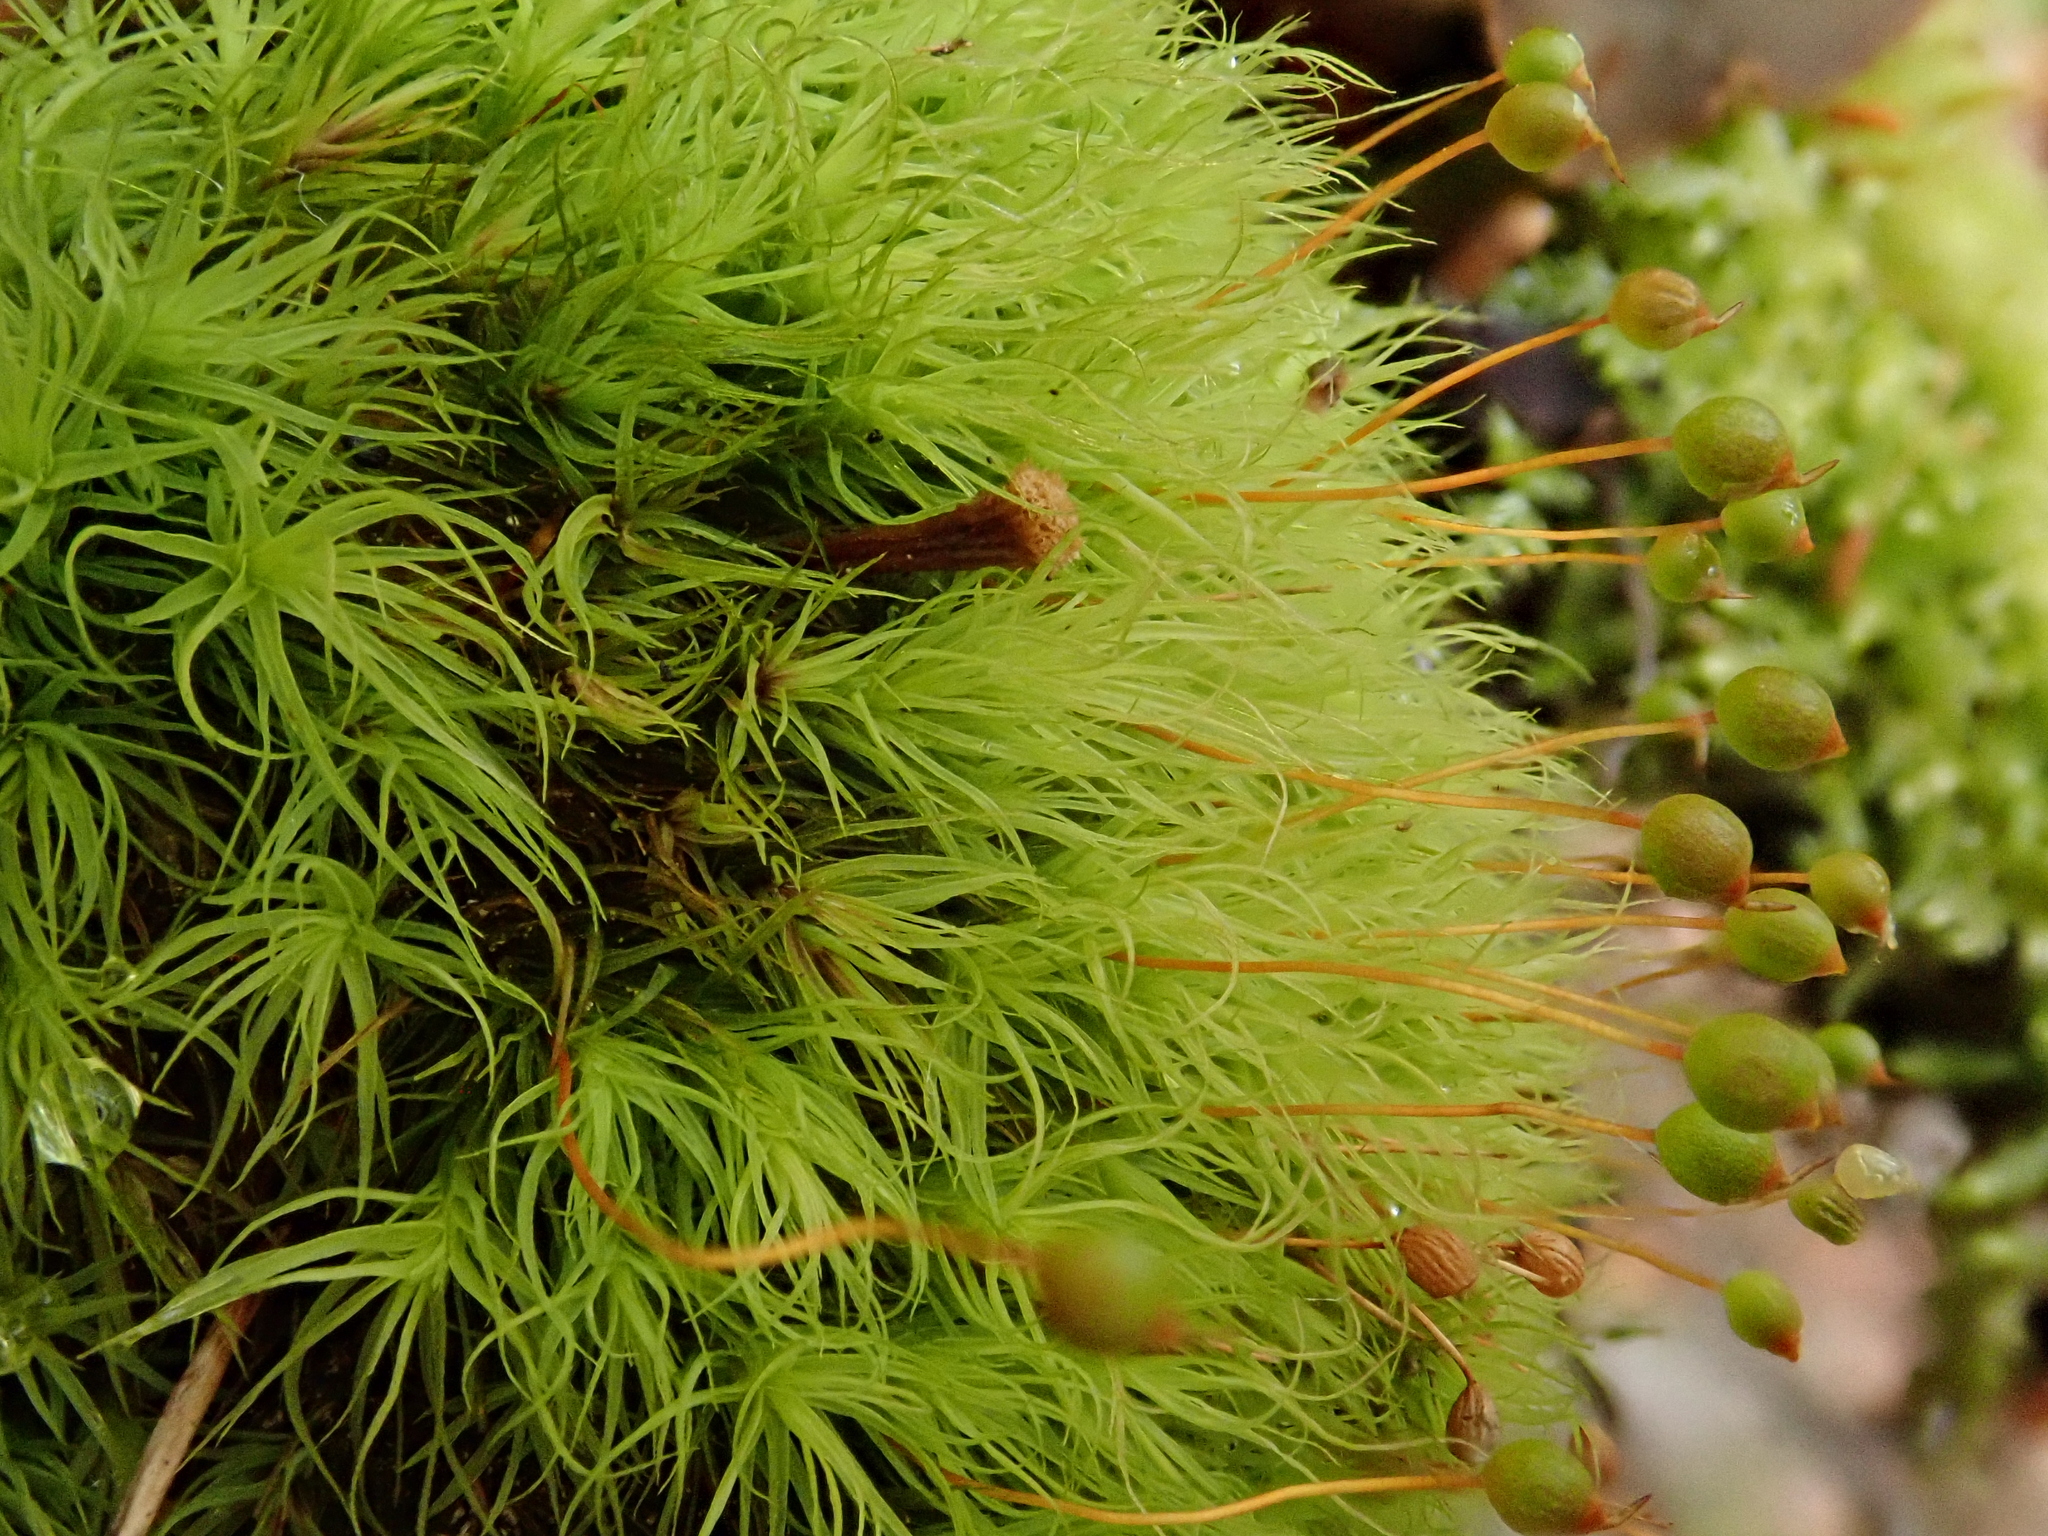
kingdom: Plantae
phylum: Bryophyta
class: Bryopsida
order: Bartramiales
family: Bartramiaceae
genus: Bartramia
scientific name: Bartramia ithyphylla
